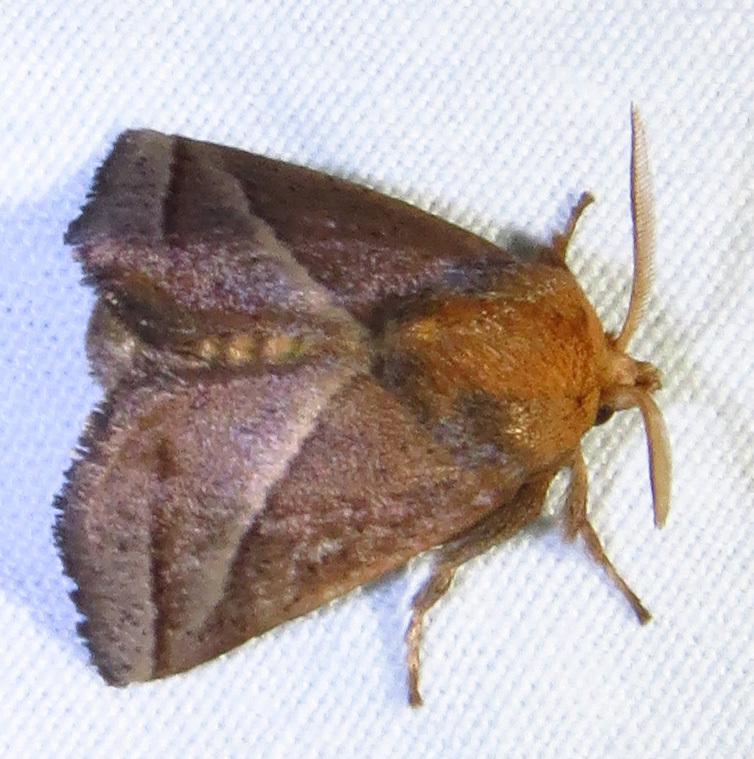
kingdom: Animalia
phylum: Arthropoda
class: Insecta
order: Lepidoptera
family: Limacodidae
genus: Natada
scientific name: Natada nasoni
